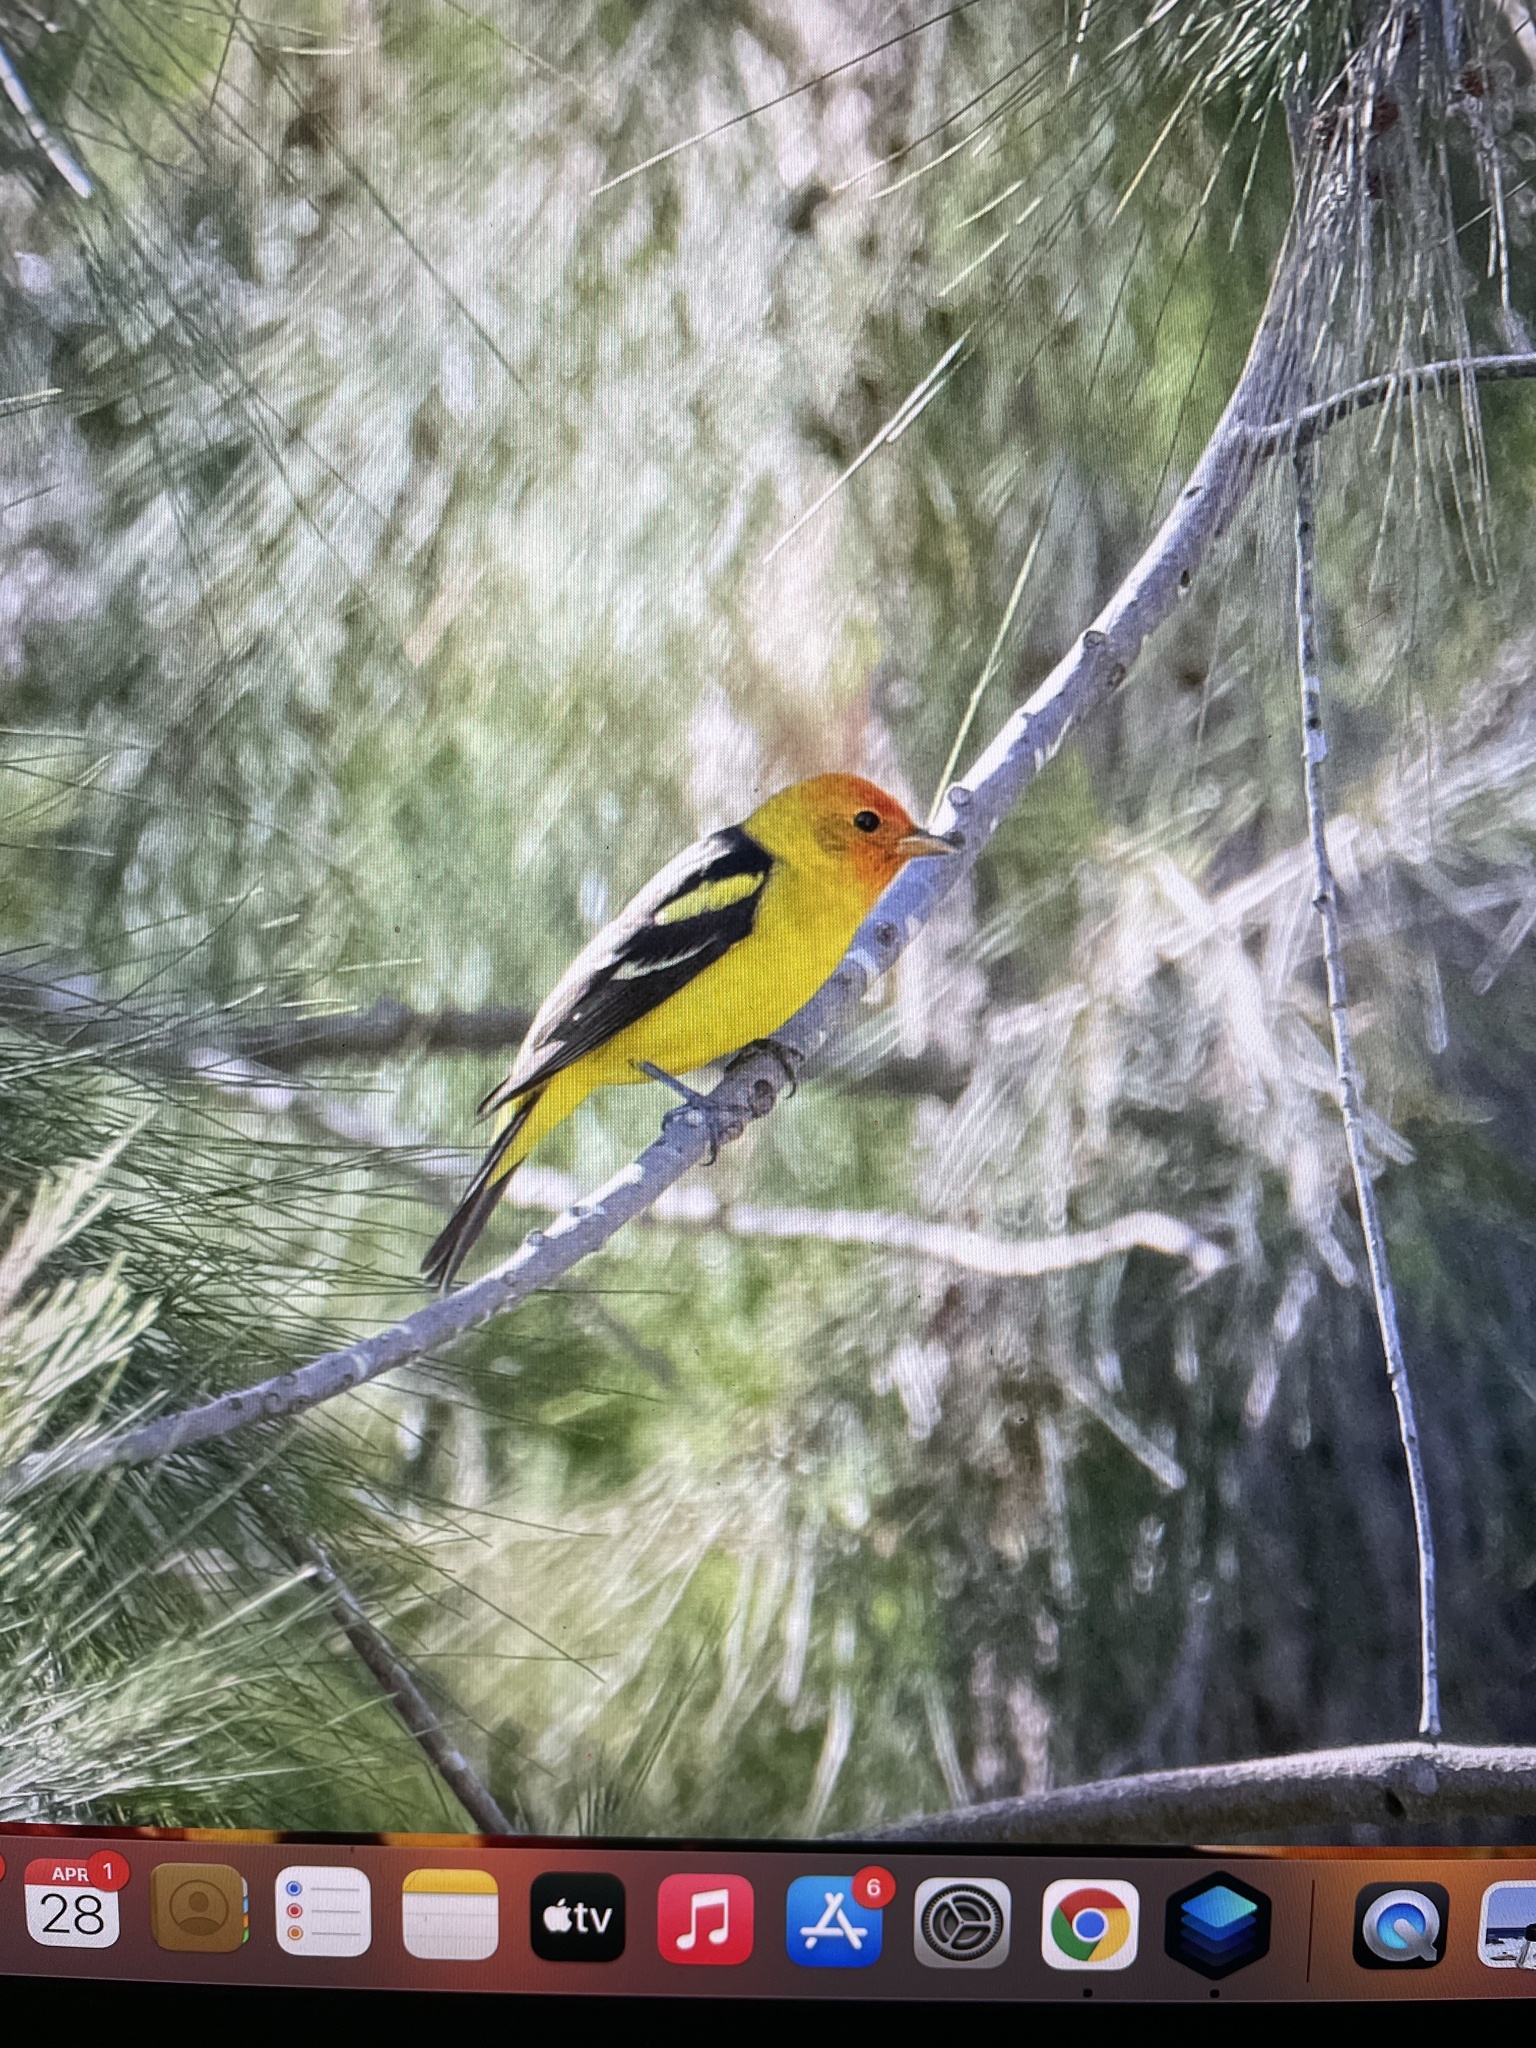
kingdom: Animalia
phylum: Chordata
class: Aves
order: Passeriformes
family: Cardinalidae
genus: Piranga
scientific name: Piranga ludoviciana
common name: Western tanager
